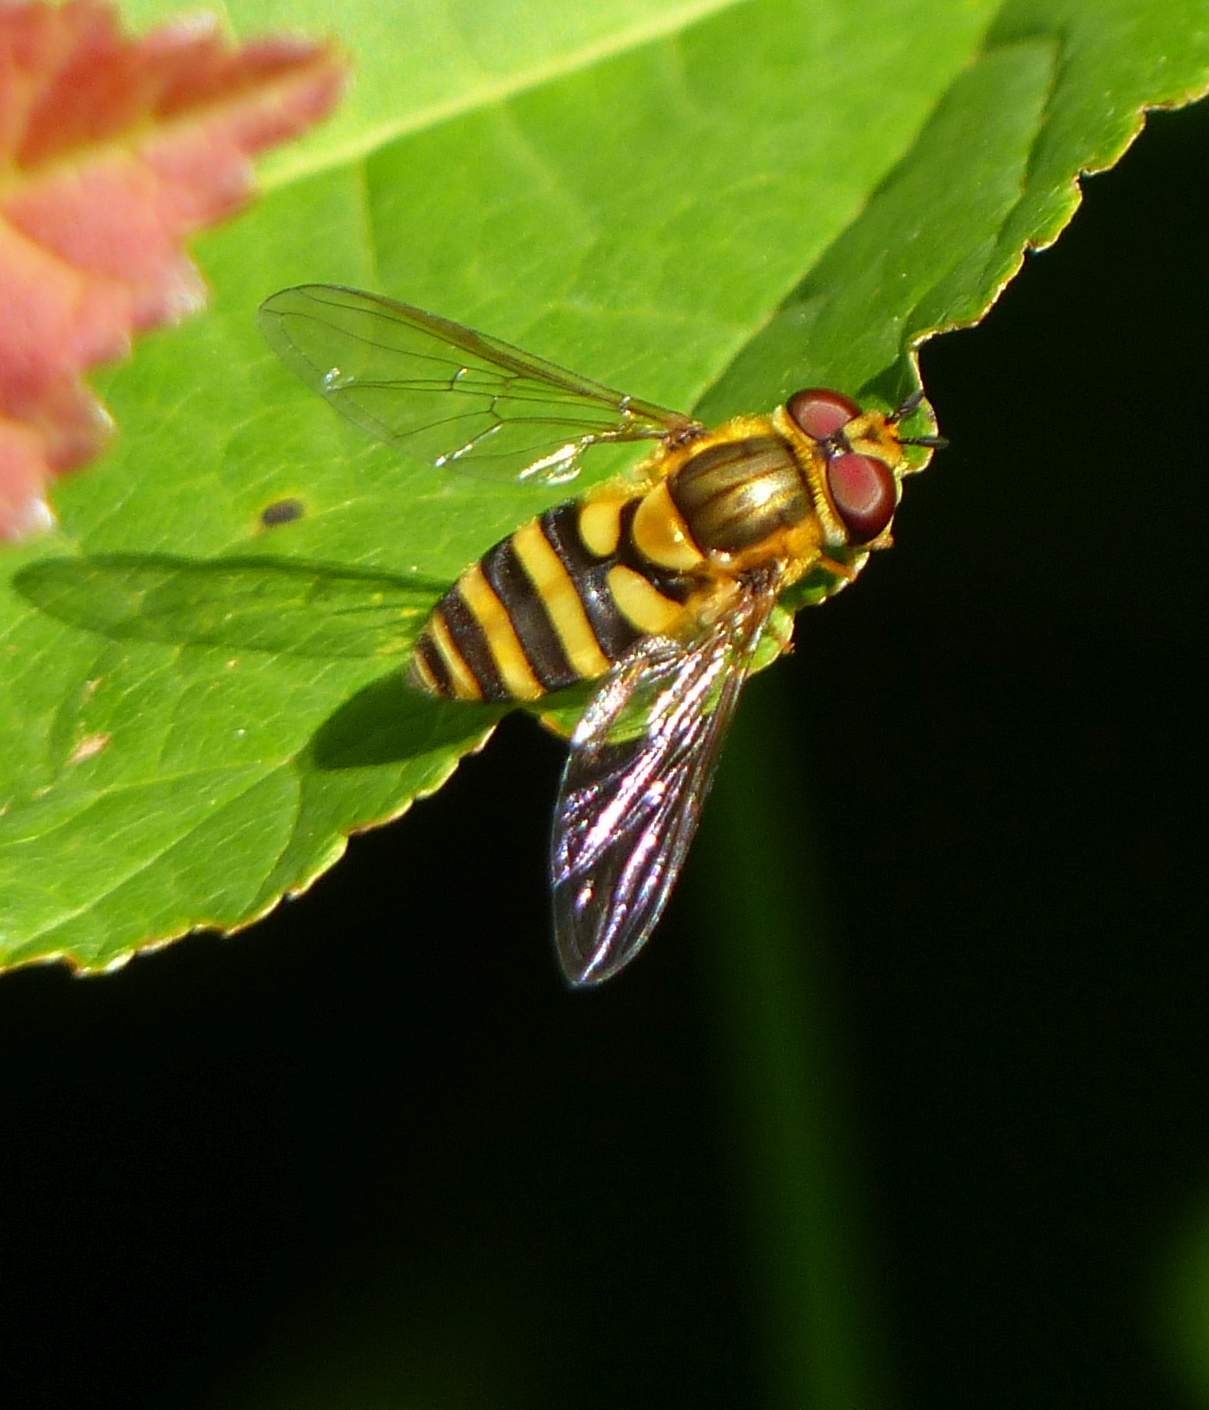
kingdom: Animalia
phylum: Arthropoda
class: Insecta
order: Diptera
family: Syrphidae
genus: Syrphus
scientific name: Syrphus knabi
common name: Eastern flower fly
